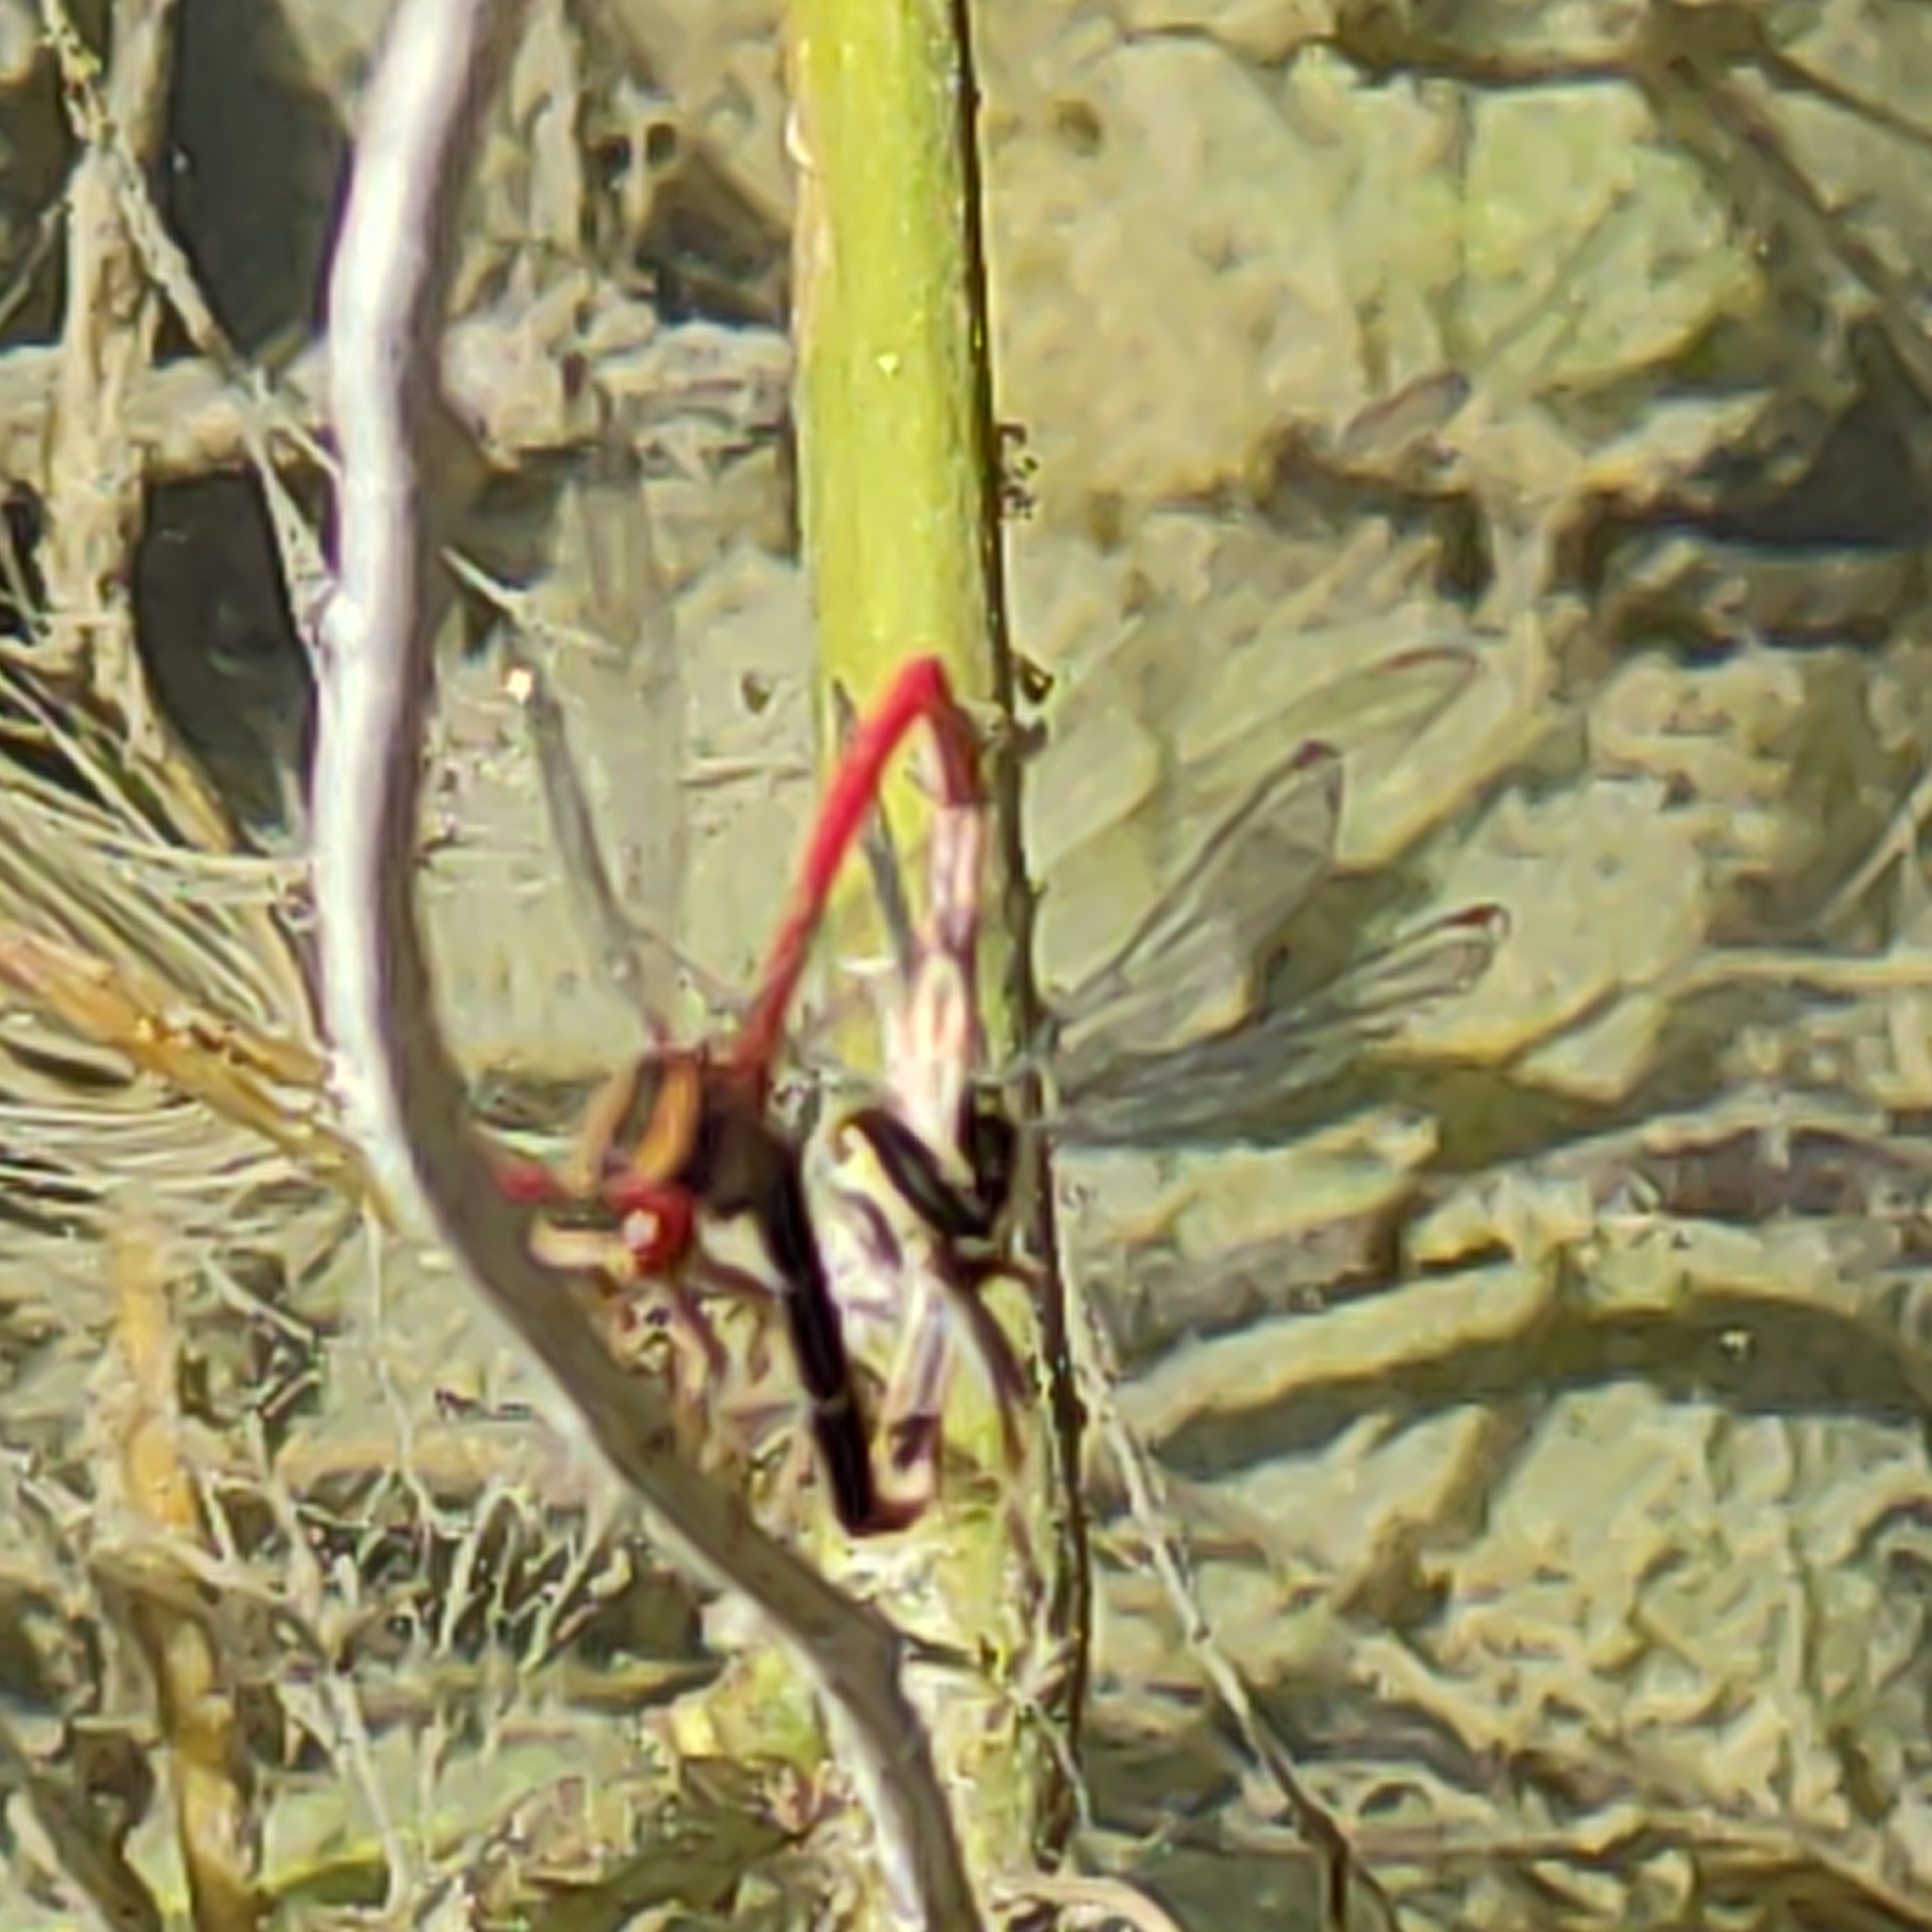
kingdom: Animalia
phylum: Arthropoda
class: Insecta
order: Odonata
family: Coenagrionidae
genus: Xanthocnemis
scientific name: Xanthocnemis zealandica
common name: Common redcoat damselfly
